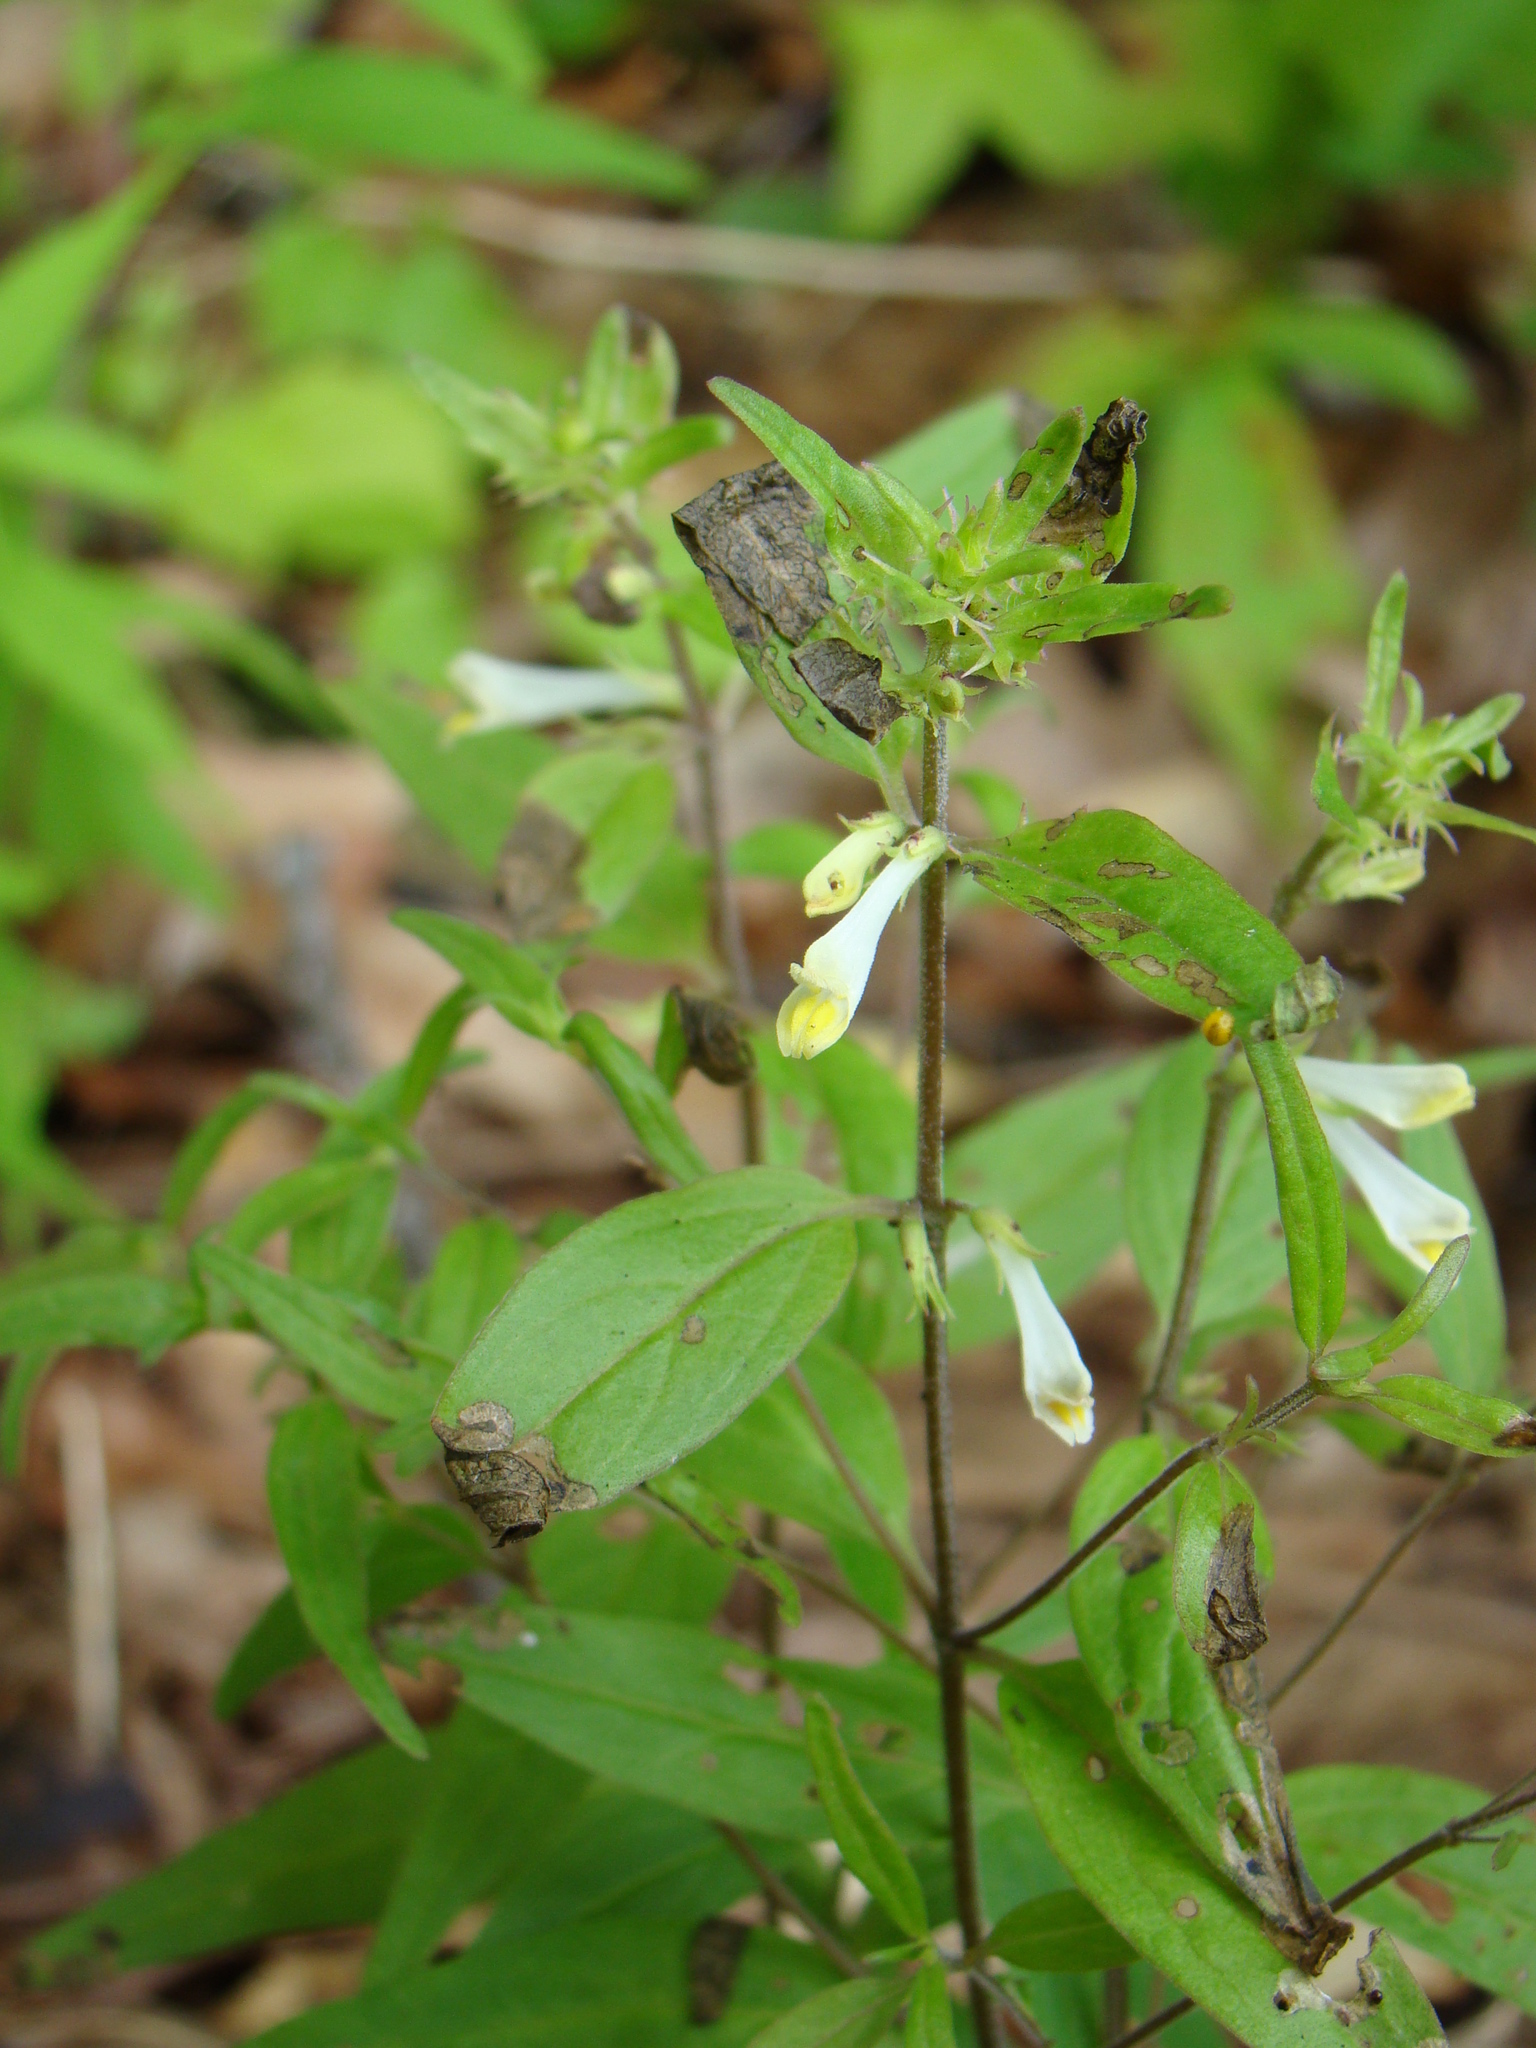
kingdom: Plantae
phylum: Tracheophyta
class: Magnoliopsida
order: Lamiales
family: Orobanchaceae
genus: Melampyrum
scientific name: Melampyrum lineare
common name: American cow-wheat
